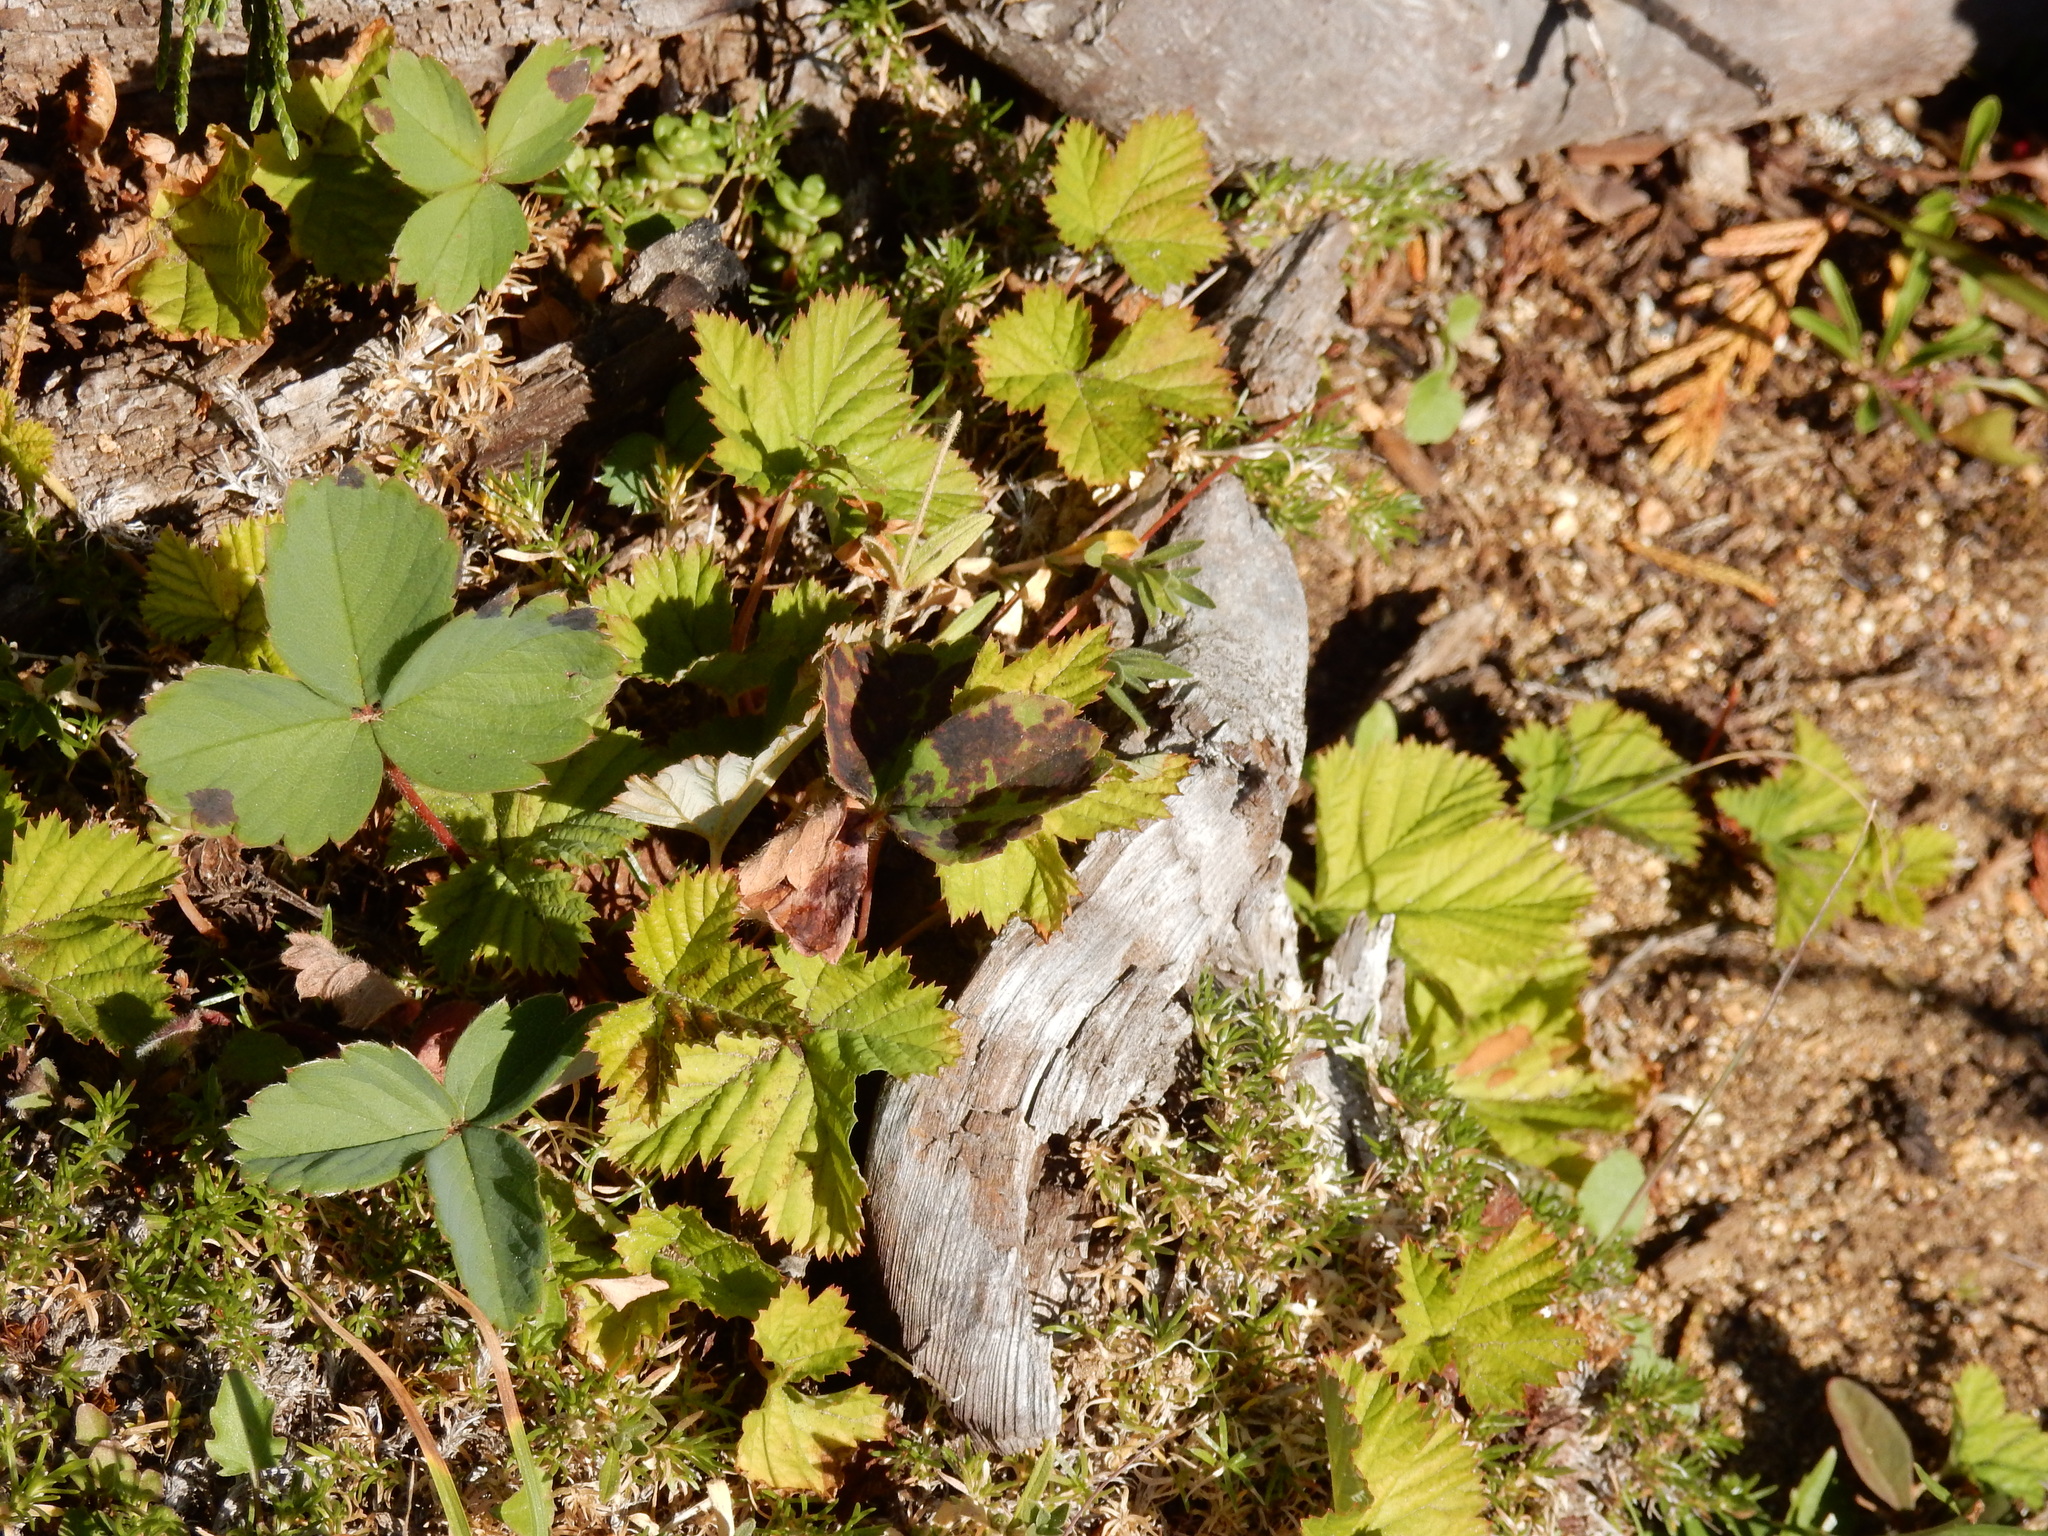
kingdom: Plantae
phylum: Tracheophyta
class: Magnoliopsida
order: Rosales
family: Rosaceae
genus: Rubus
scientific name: Rubus lasiococcus
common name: Dwarf bramble
